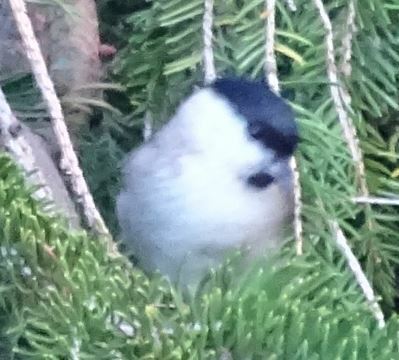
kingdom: Animalia
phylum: Chordata
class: Aves
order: Passeriformes
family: Paridae
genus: Poecile
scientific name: Poecile palustris
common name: Marsh tit
